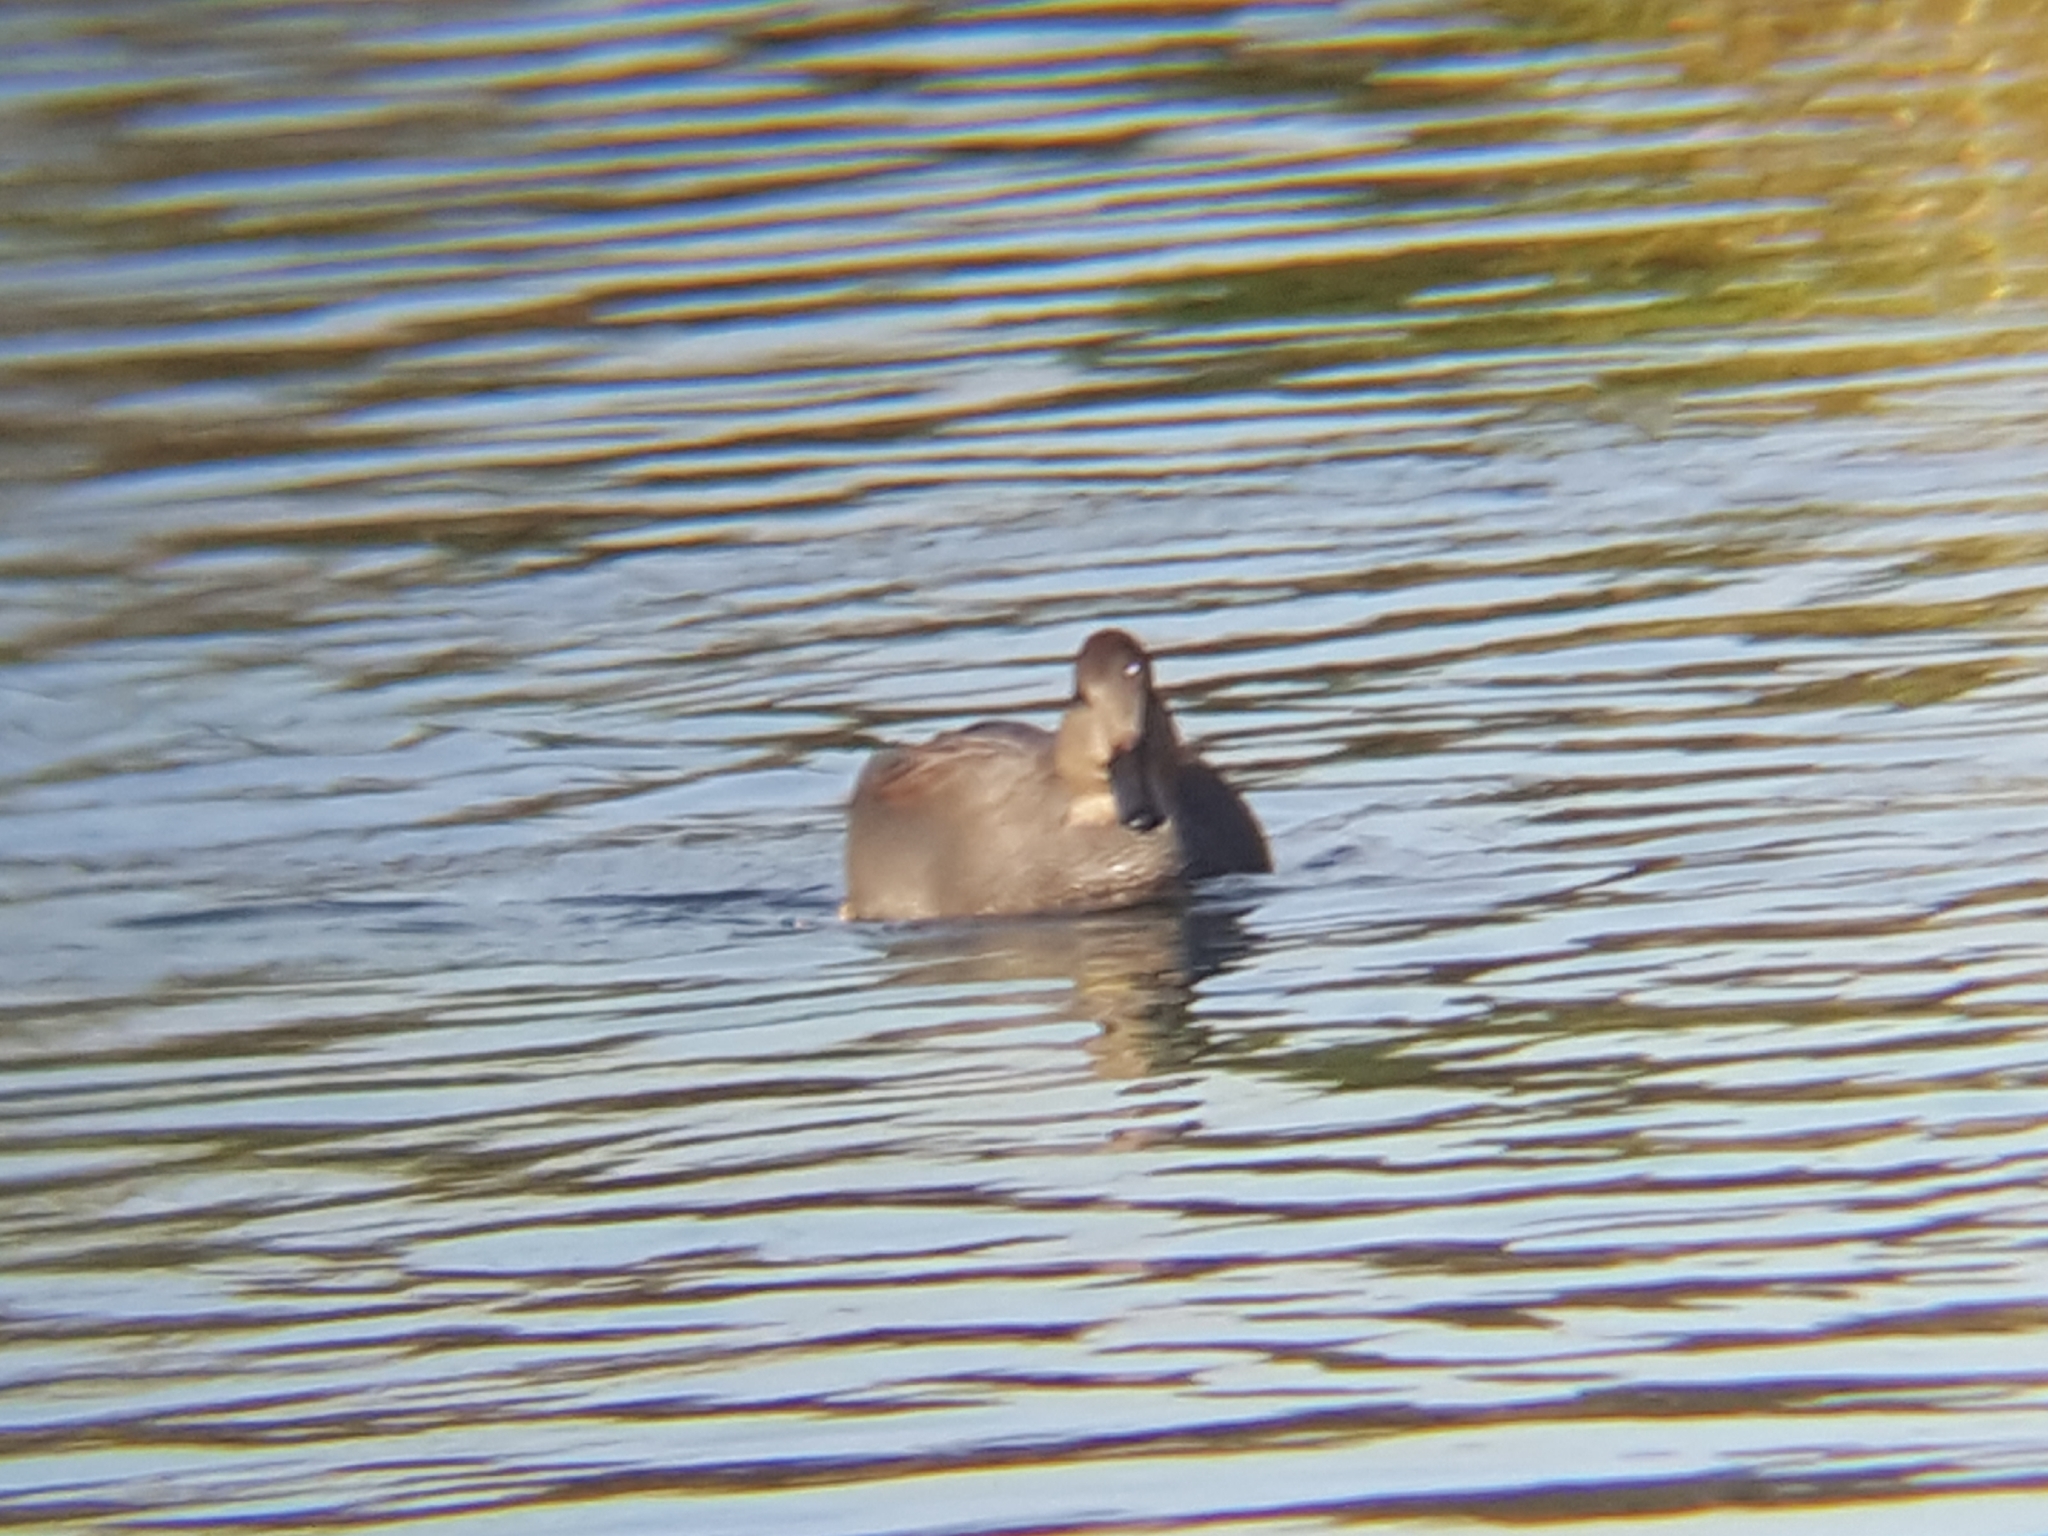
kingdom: Animalia
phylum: Chordata
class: Aves
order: Anseriformes
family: Anatidae
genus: Mareca
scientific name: Mareca strepera
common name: Gadwall
